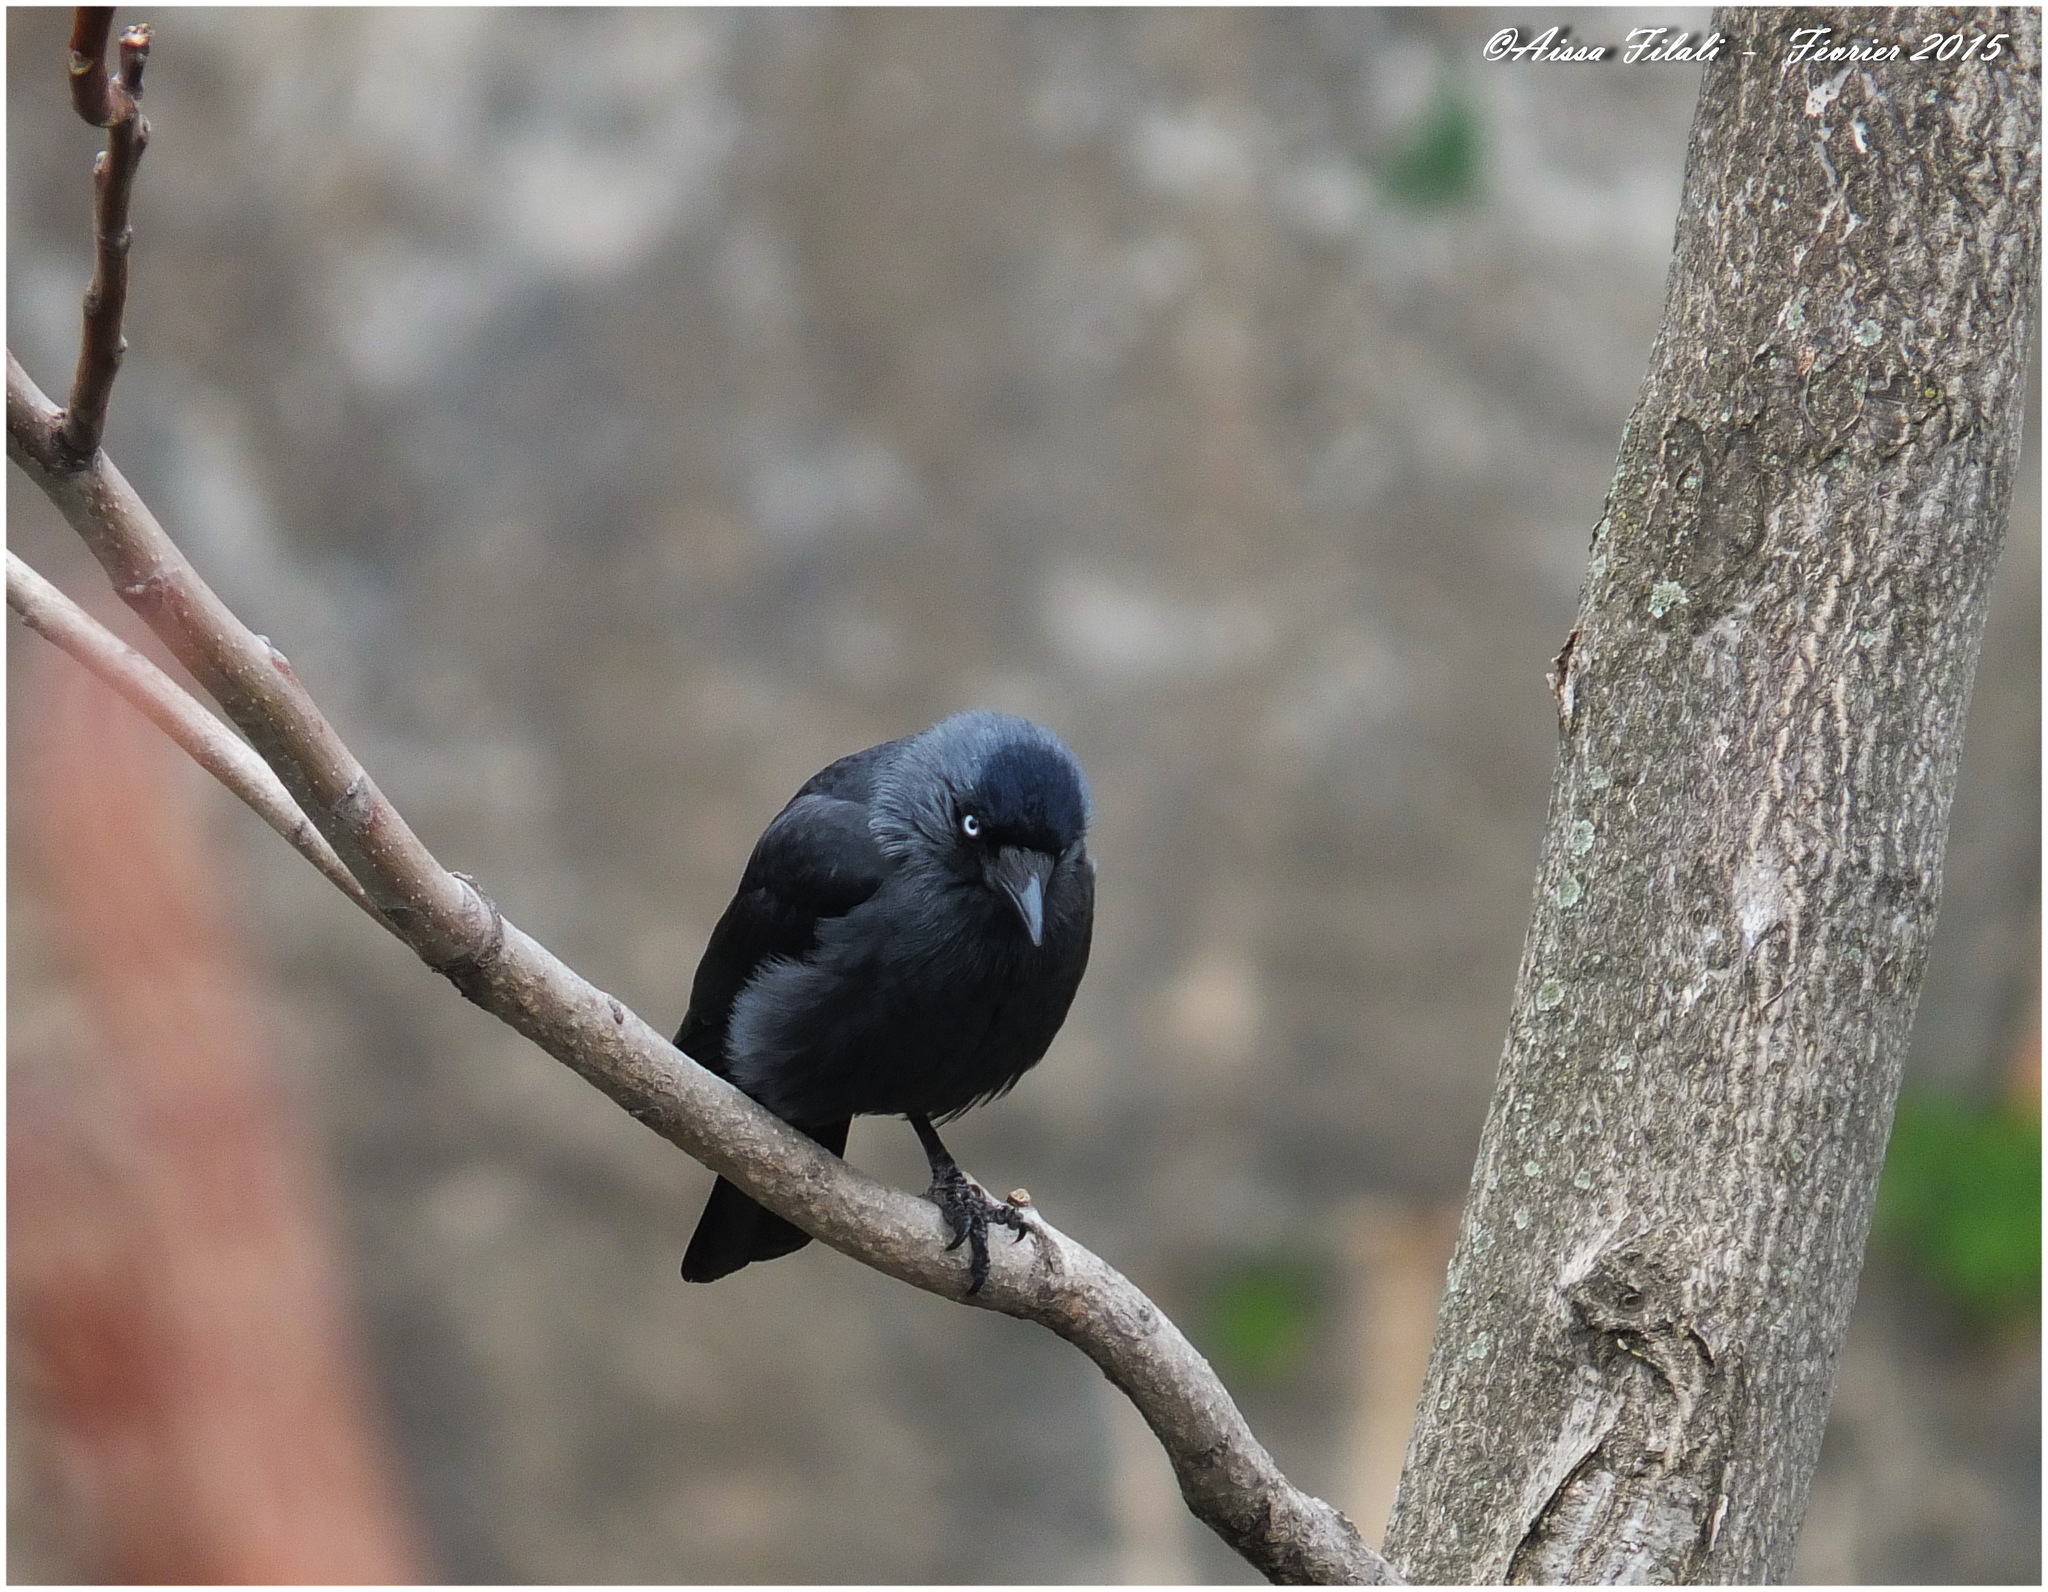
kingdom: Animalia
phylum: Chordata
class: Aves
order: Passeriformes
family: Corvidae
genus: Coloeus
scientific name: Coloeus monedula
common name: Western jackdaw
